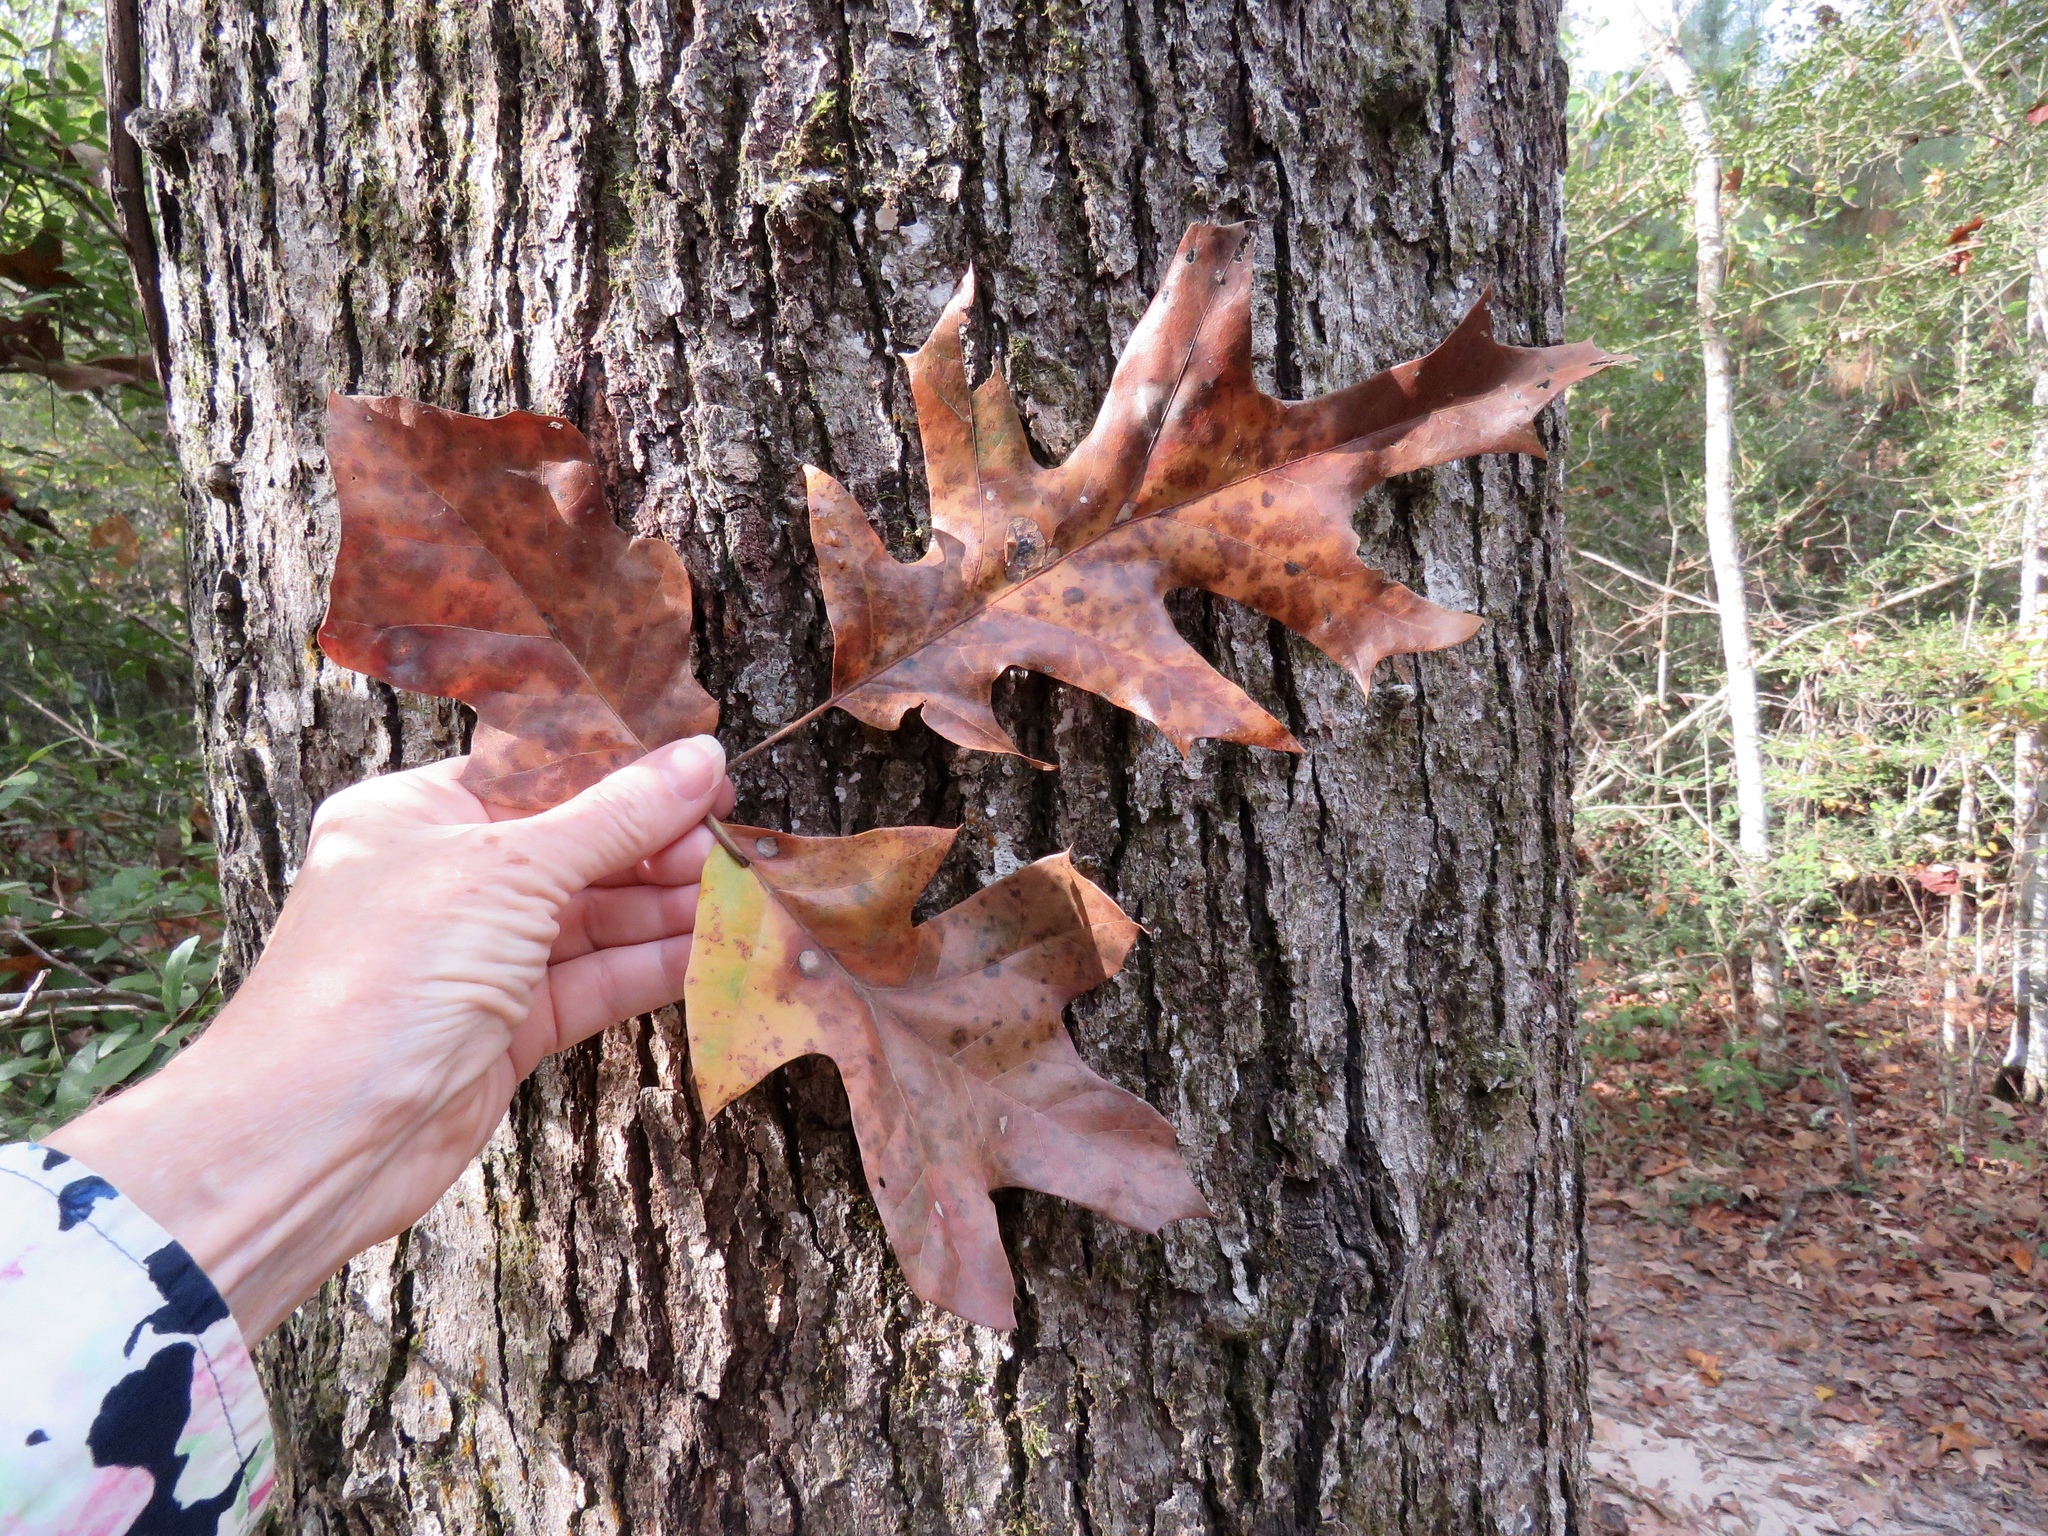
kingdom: Plantae
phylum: Tracheophyta
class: Magnoliopsida
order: Fagales
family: Fagaceae
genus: Quercus
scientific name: Quercus pagoda
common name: Cherrybark oak
